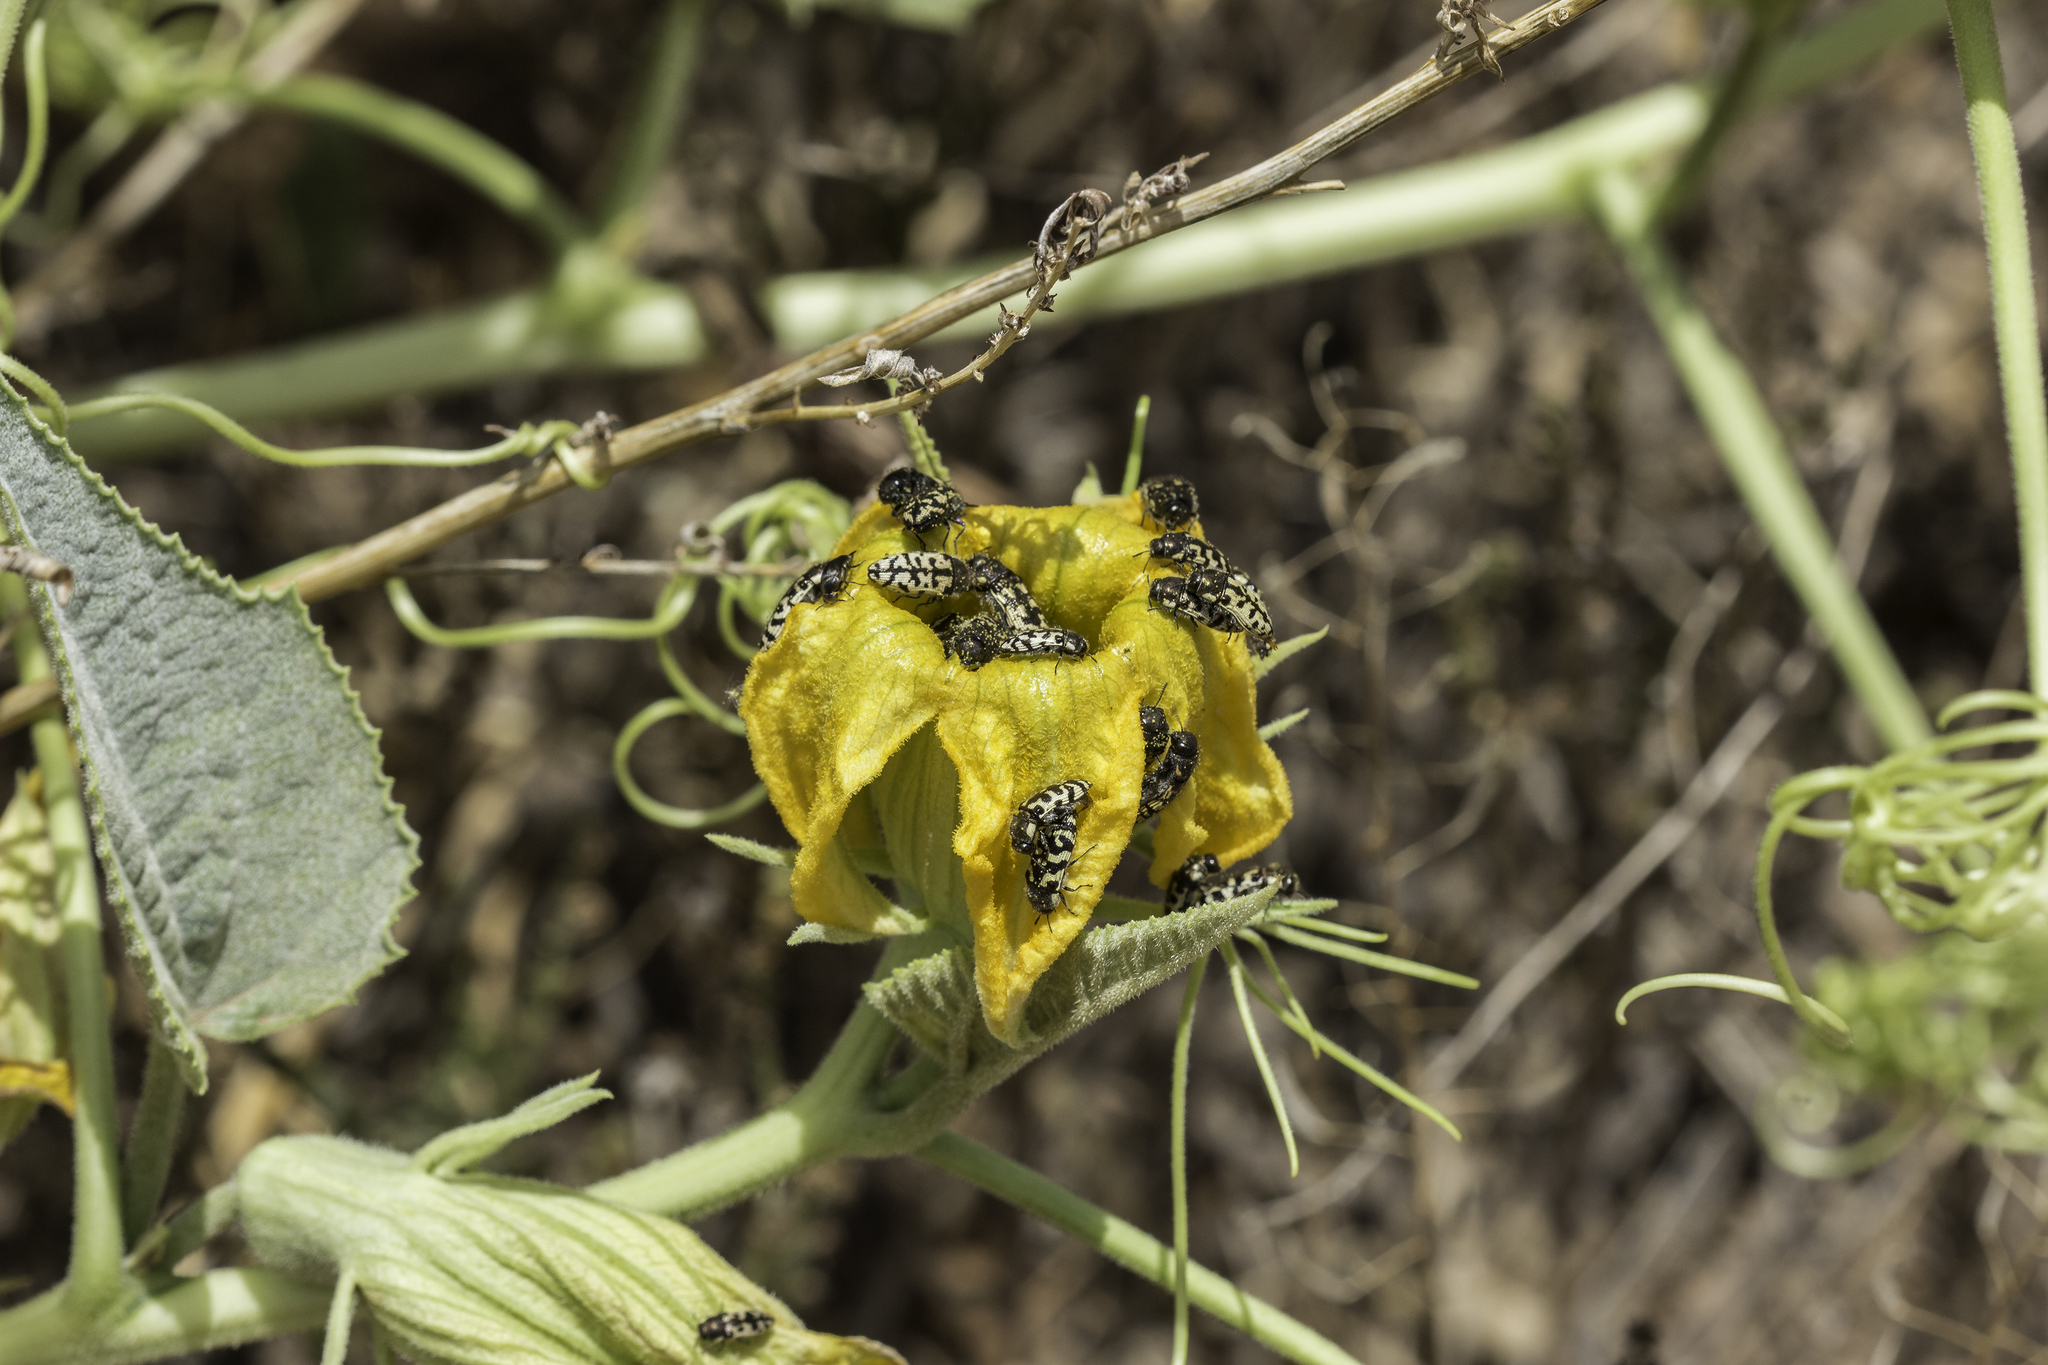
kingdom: Plantae
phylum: Tracheophyta
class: Magnoliopsida
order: Cucurbitales
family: Cucurbitaceae
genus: Cucurbita
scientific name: Cucurbita foetidissima
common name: Buffalo gourd
